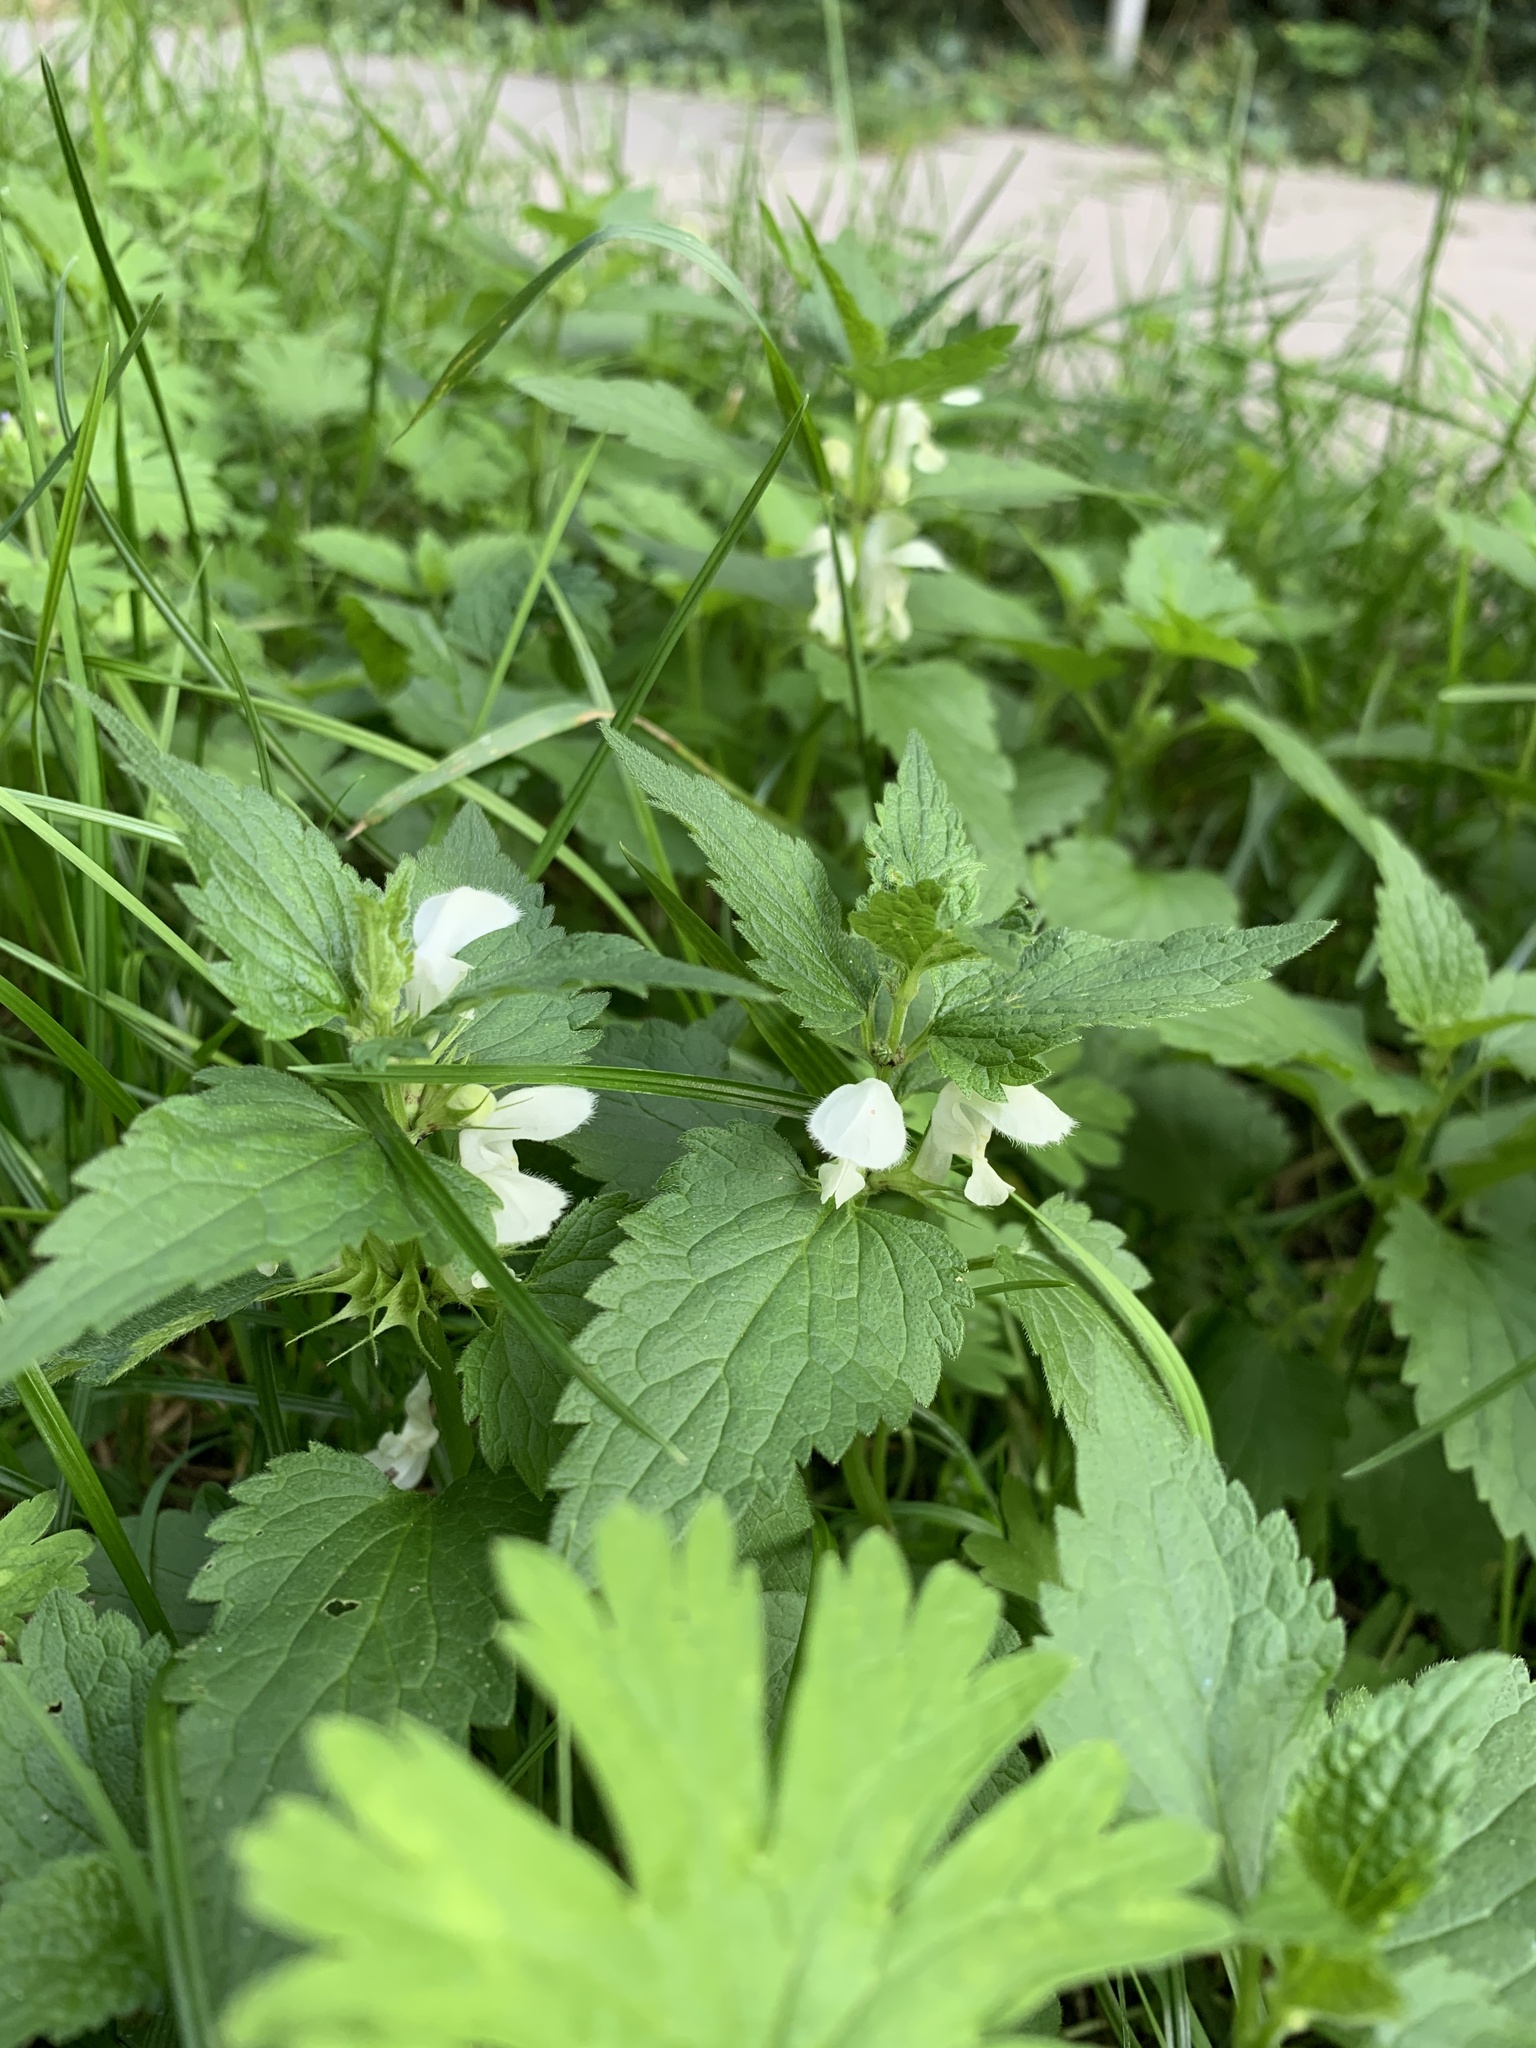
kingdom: Plantae
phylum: Tracheophyta
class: Magnoliopsida
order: Lamiales
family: Lamiaceae
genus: Lamium
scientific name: Lamium album
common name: White dead-nettle
